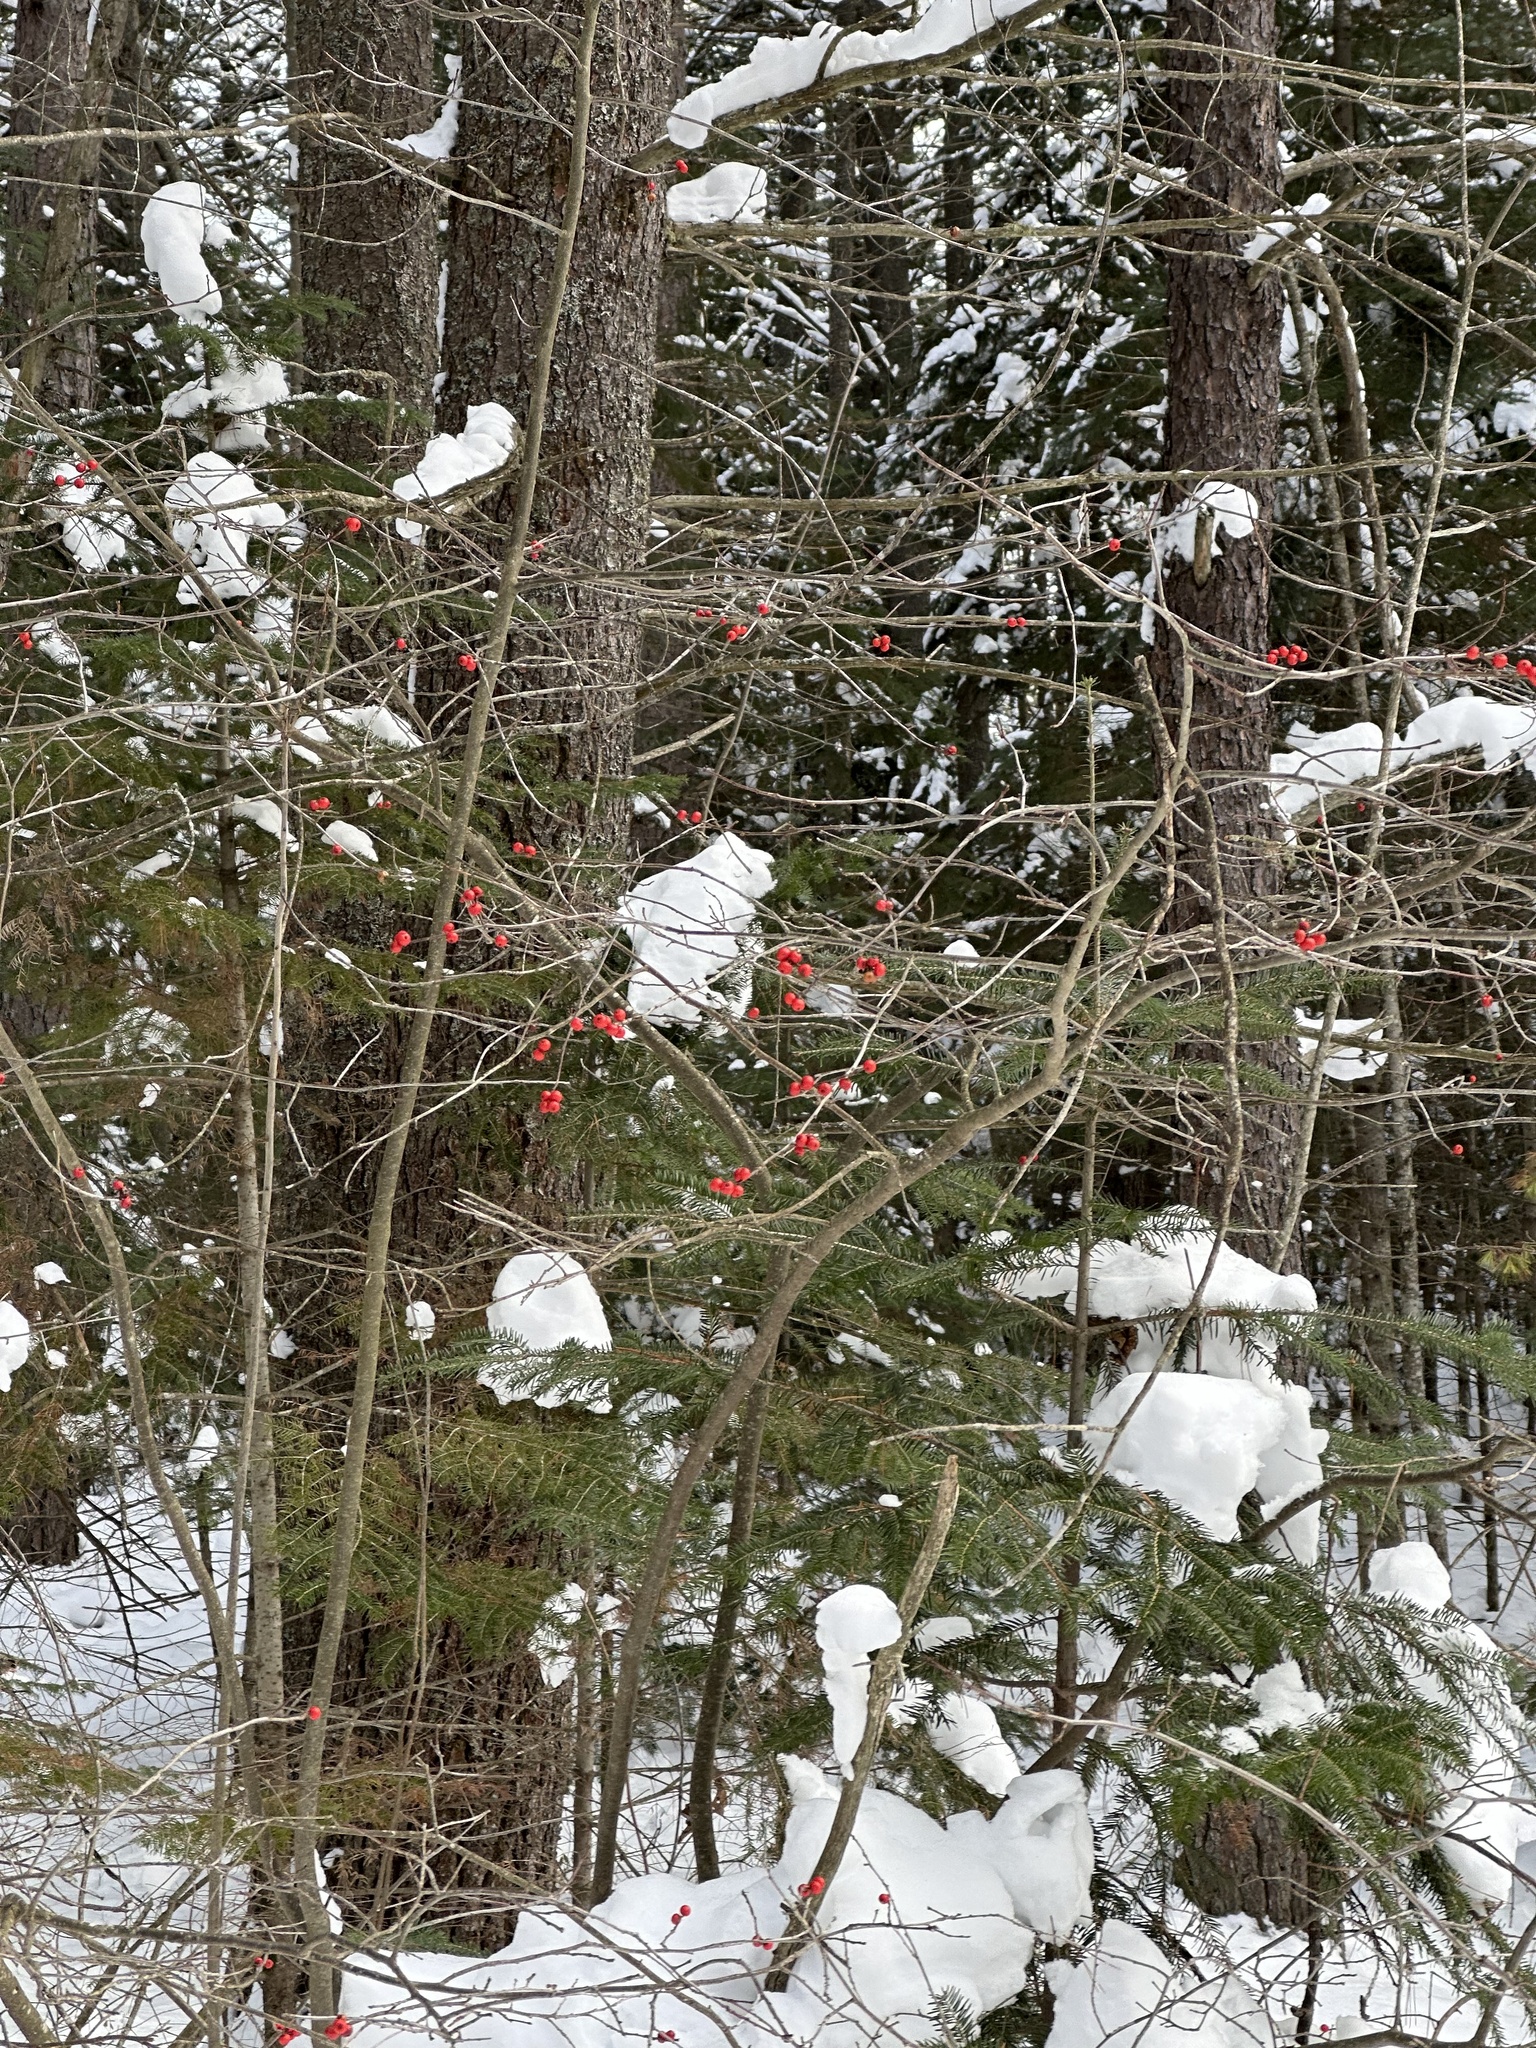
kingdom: Plantae
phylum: Tracheophyta
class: Magnoliopsida
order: Aquifoliales
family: Aquifoliaceae
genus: Ilex
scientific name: Ilex verticillata
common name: Virginia winterberry
